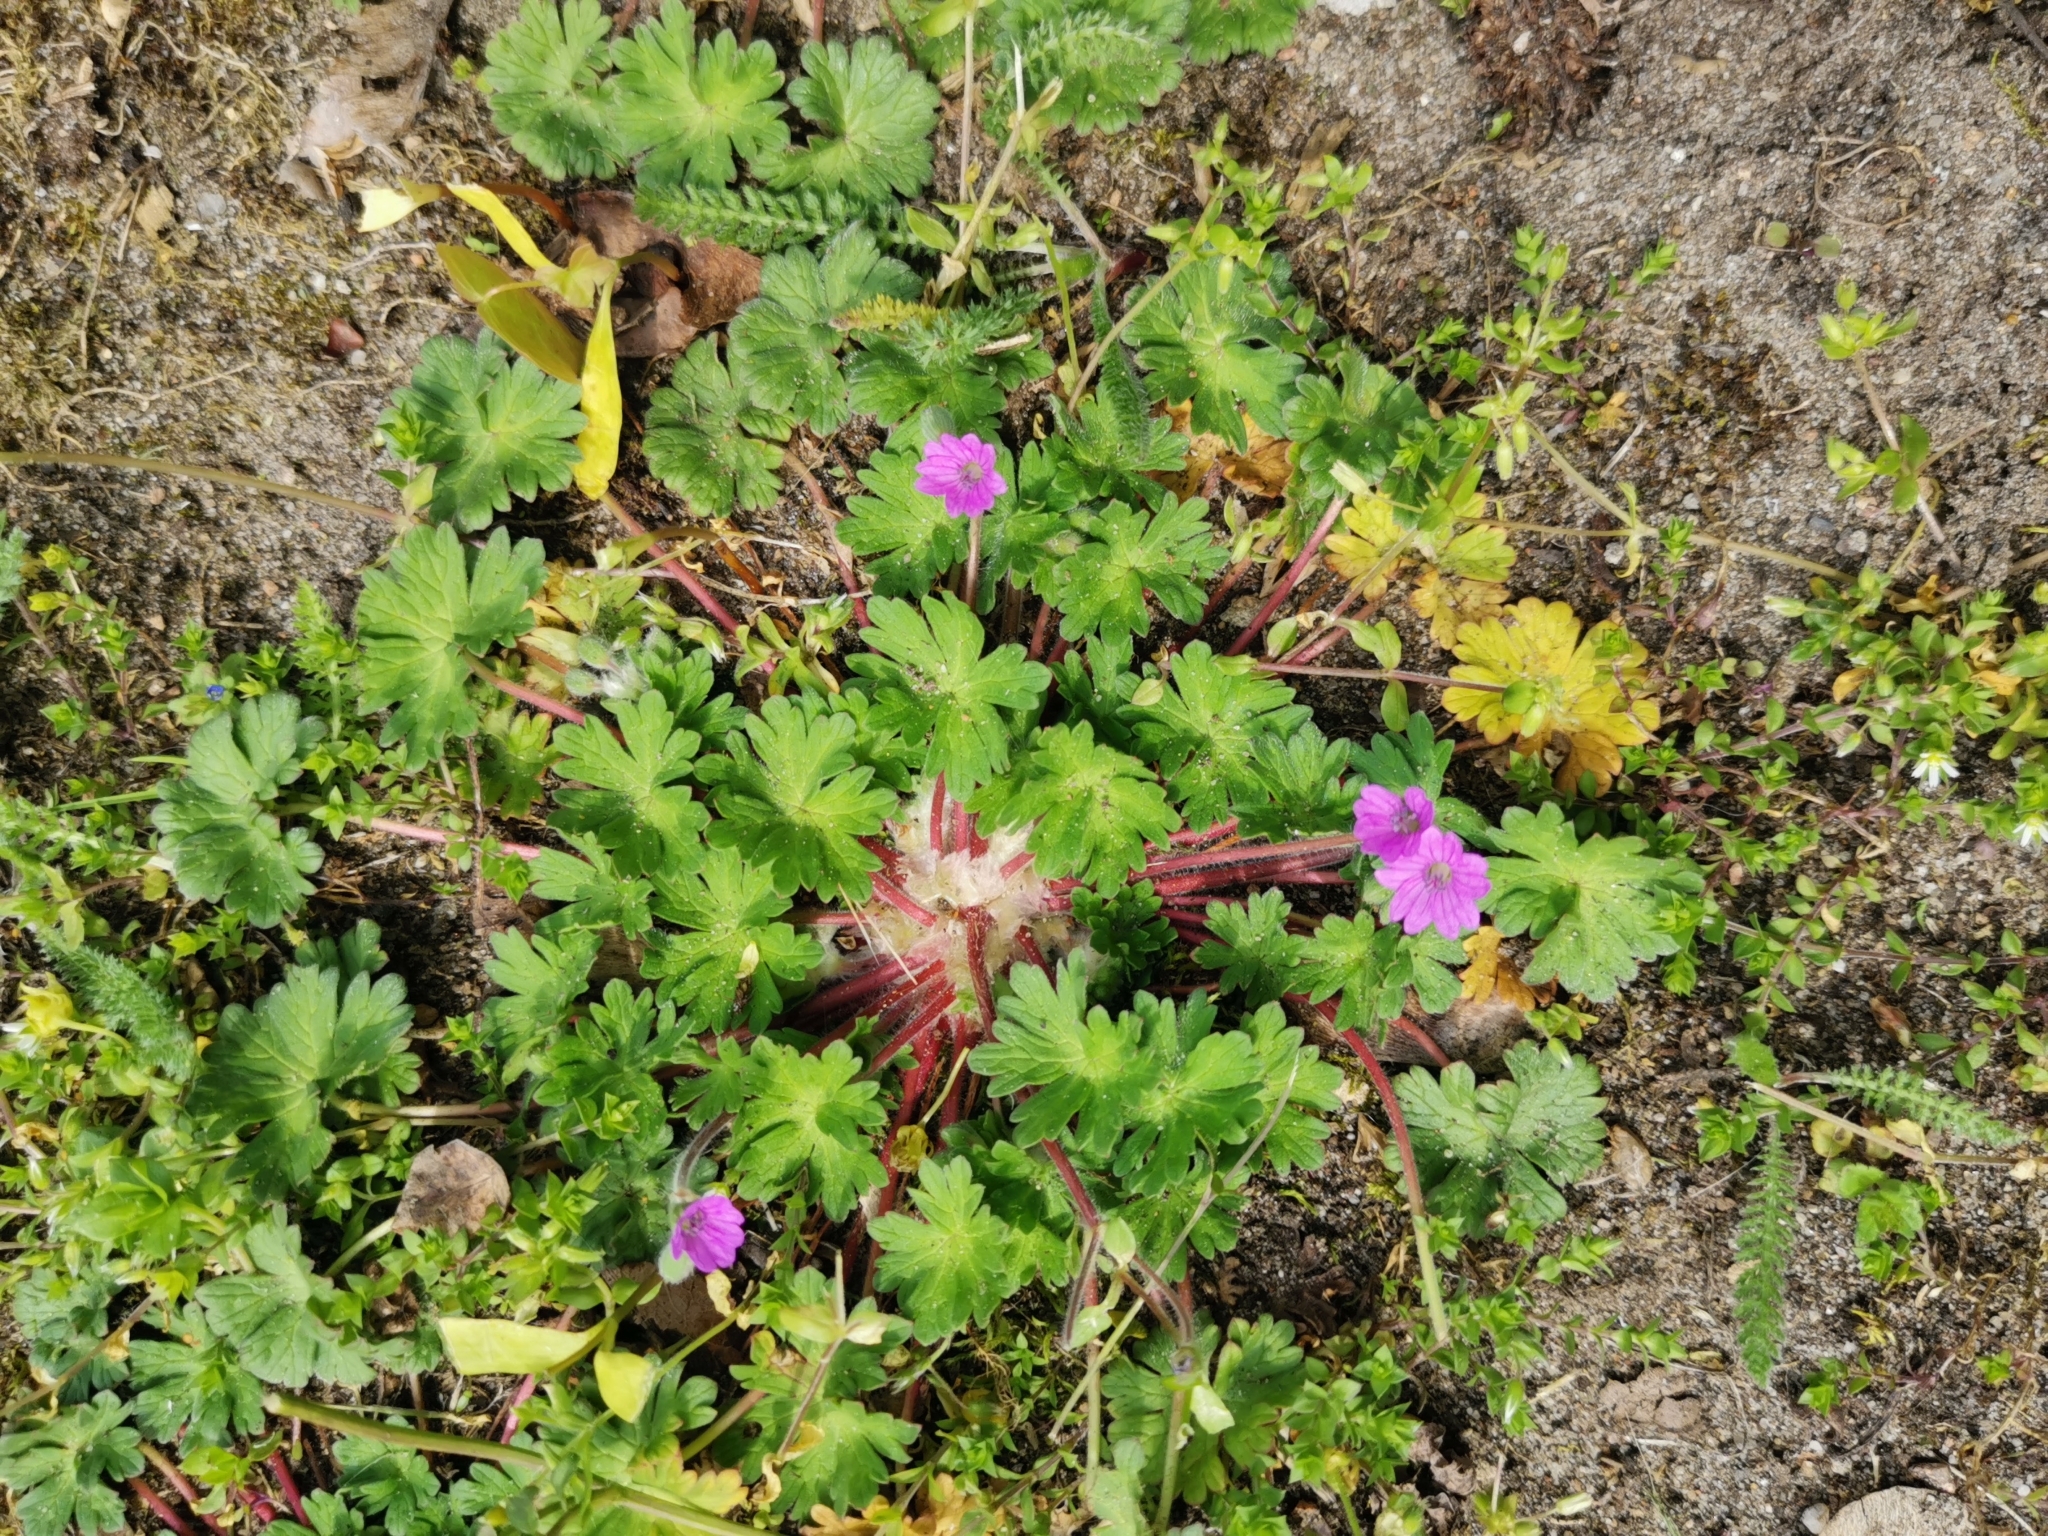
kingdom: Plantae
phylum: Tracheophyta
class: Magnoliopsida
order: Geraniales
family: Geraniaceae
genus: Geranium
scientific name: Geranium molle
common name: Dove's-foot crane's-bill
